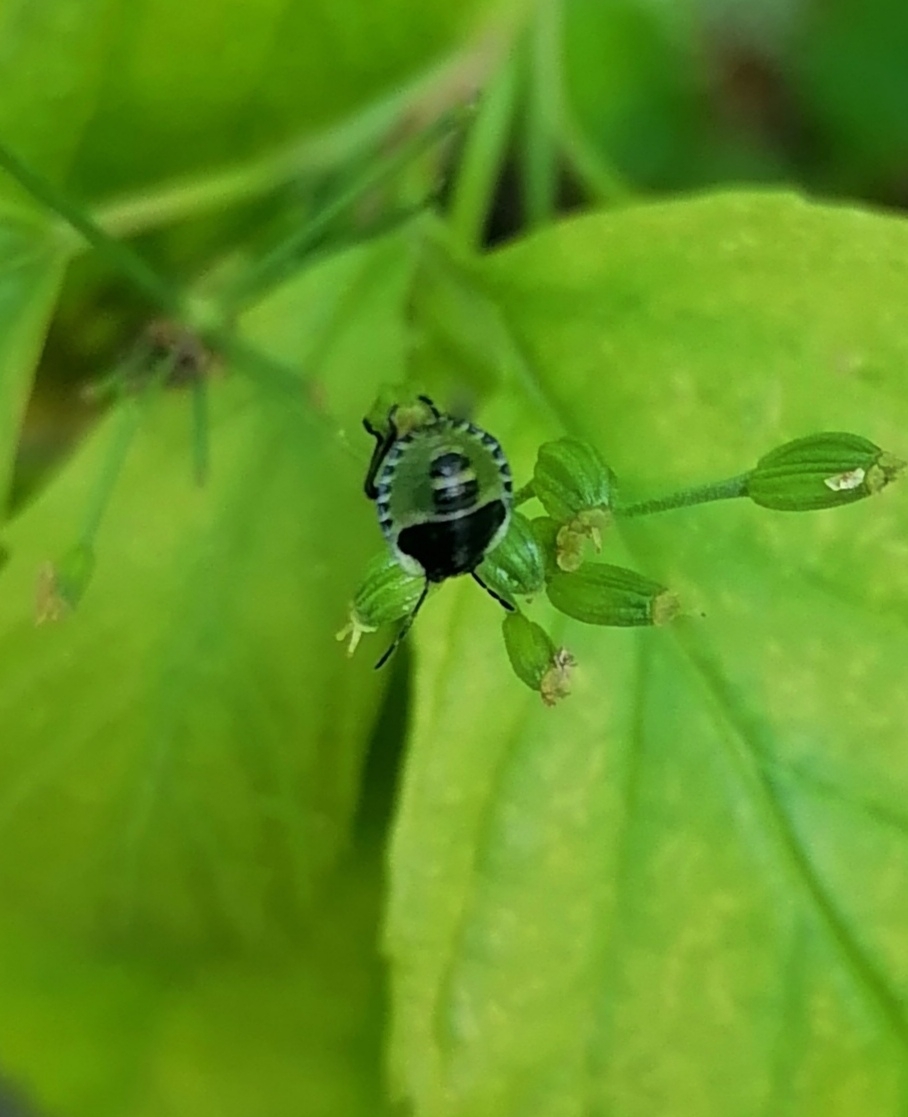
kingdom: Animalia
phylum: Arthropoda
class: Insecta
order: Hemiptera
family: Pentatomidae
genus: Palomena
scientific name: Palomena prasina
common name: Green shieldbug
